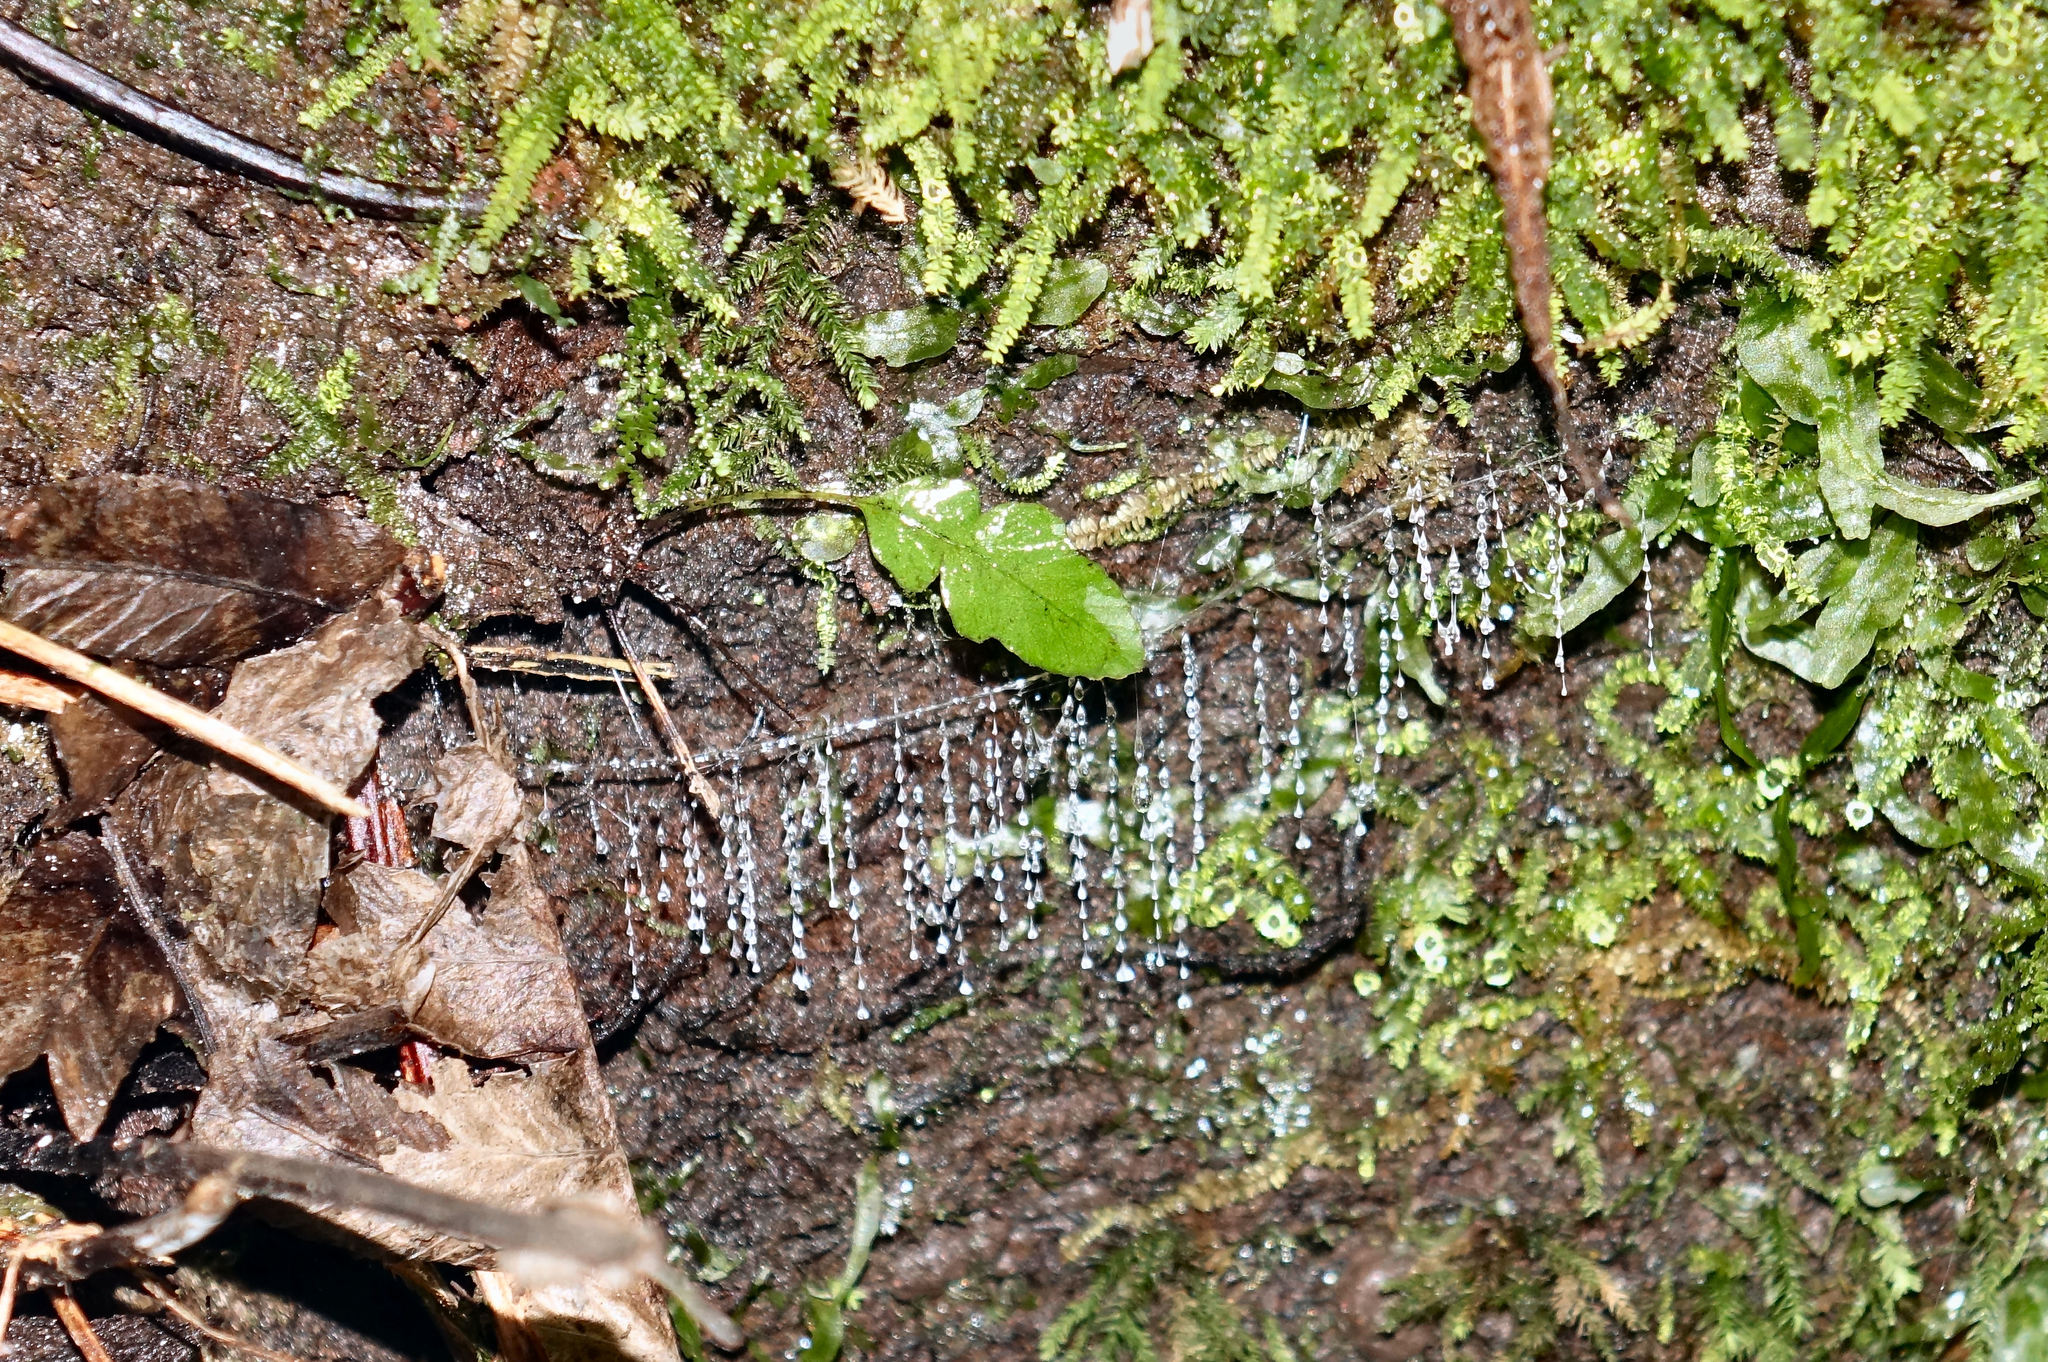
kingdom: Animalia
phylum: Arthropoda
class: Insecta
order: Diptera
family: Keroplatidae
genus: Arachnocampa
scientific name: Arachnocampa luminosa
